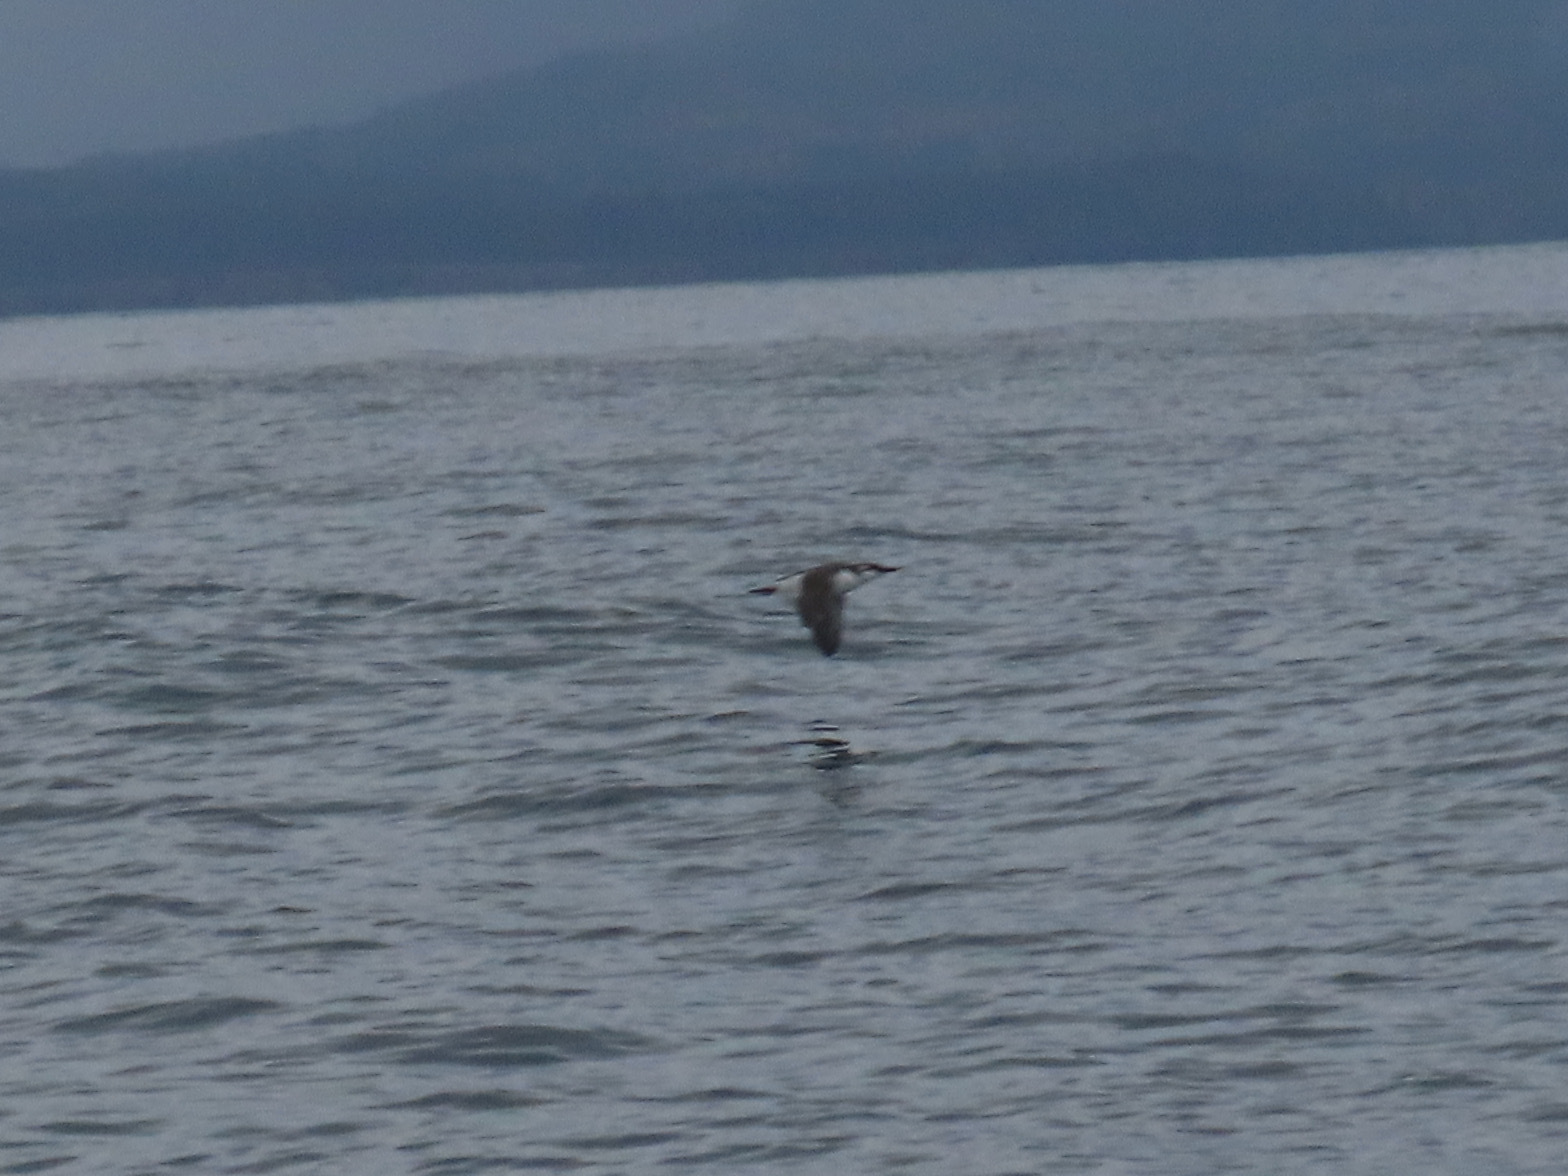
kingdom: Animalia
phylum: Chordata
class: Aves
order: Charadriiformes
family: Alcidae
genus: Uria
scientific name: Uria aalge
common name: Common murre
